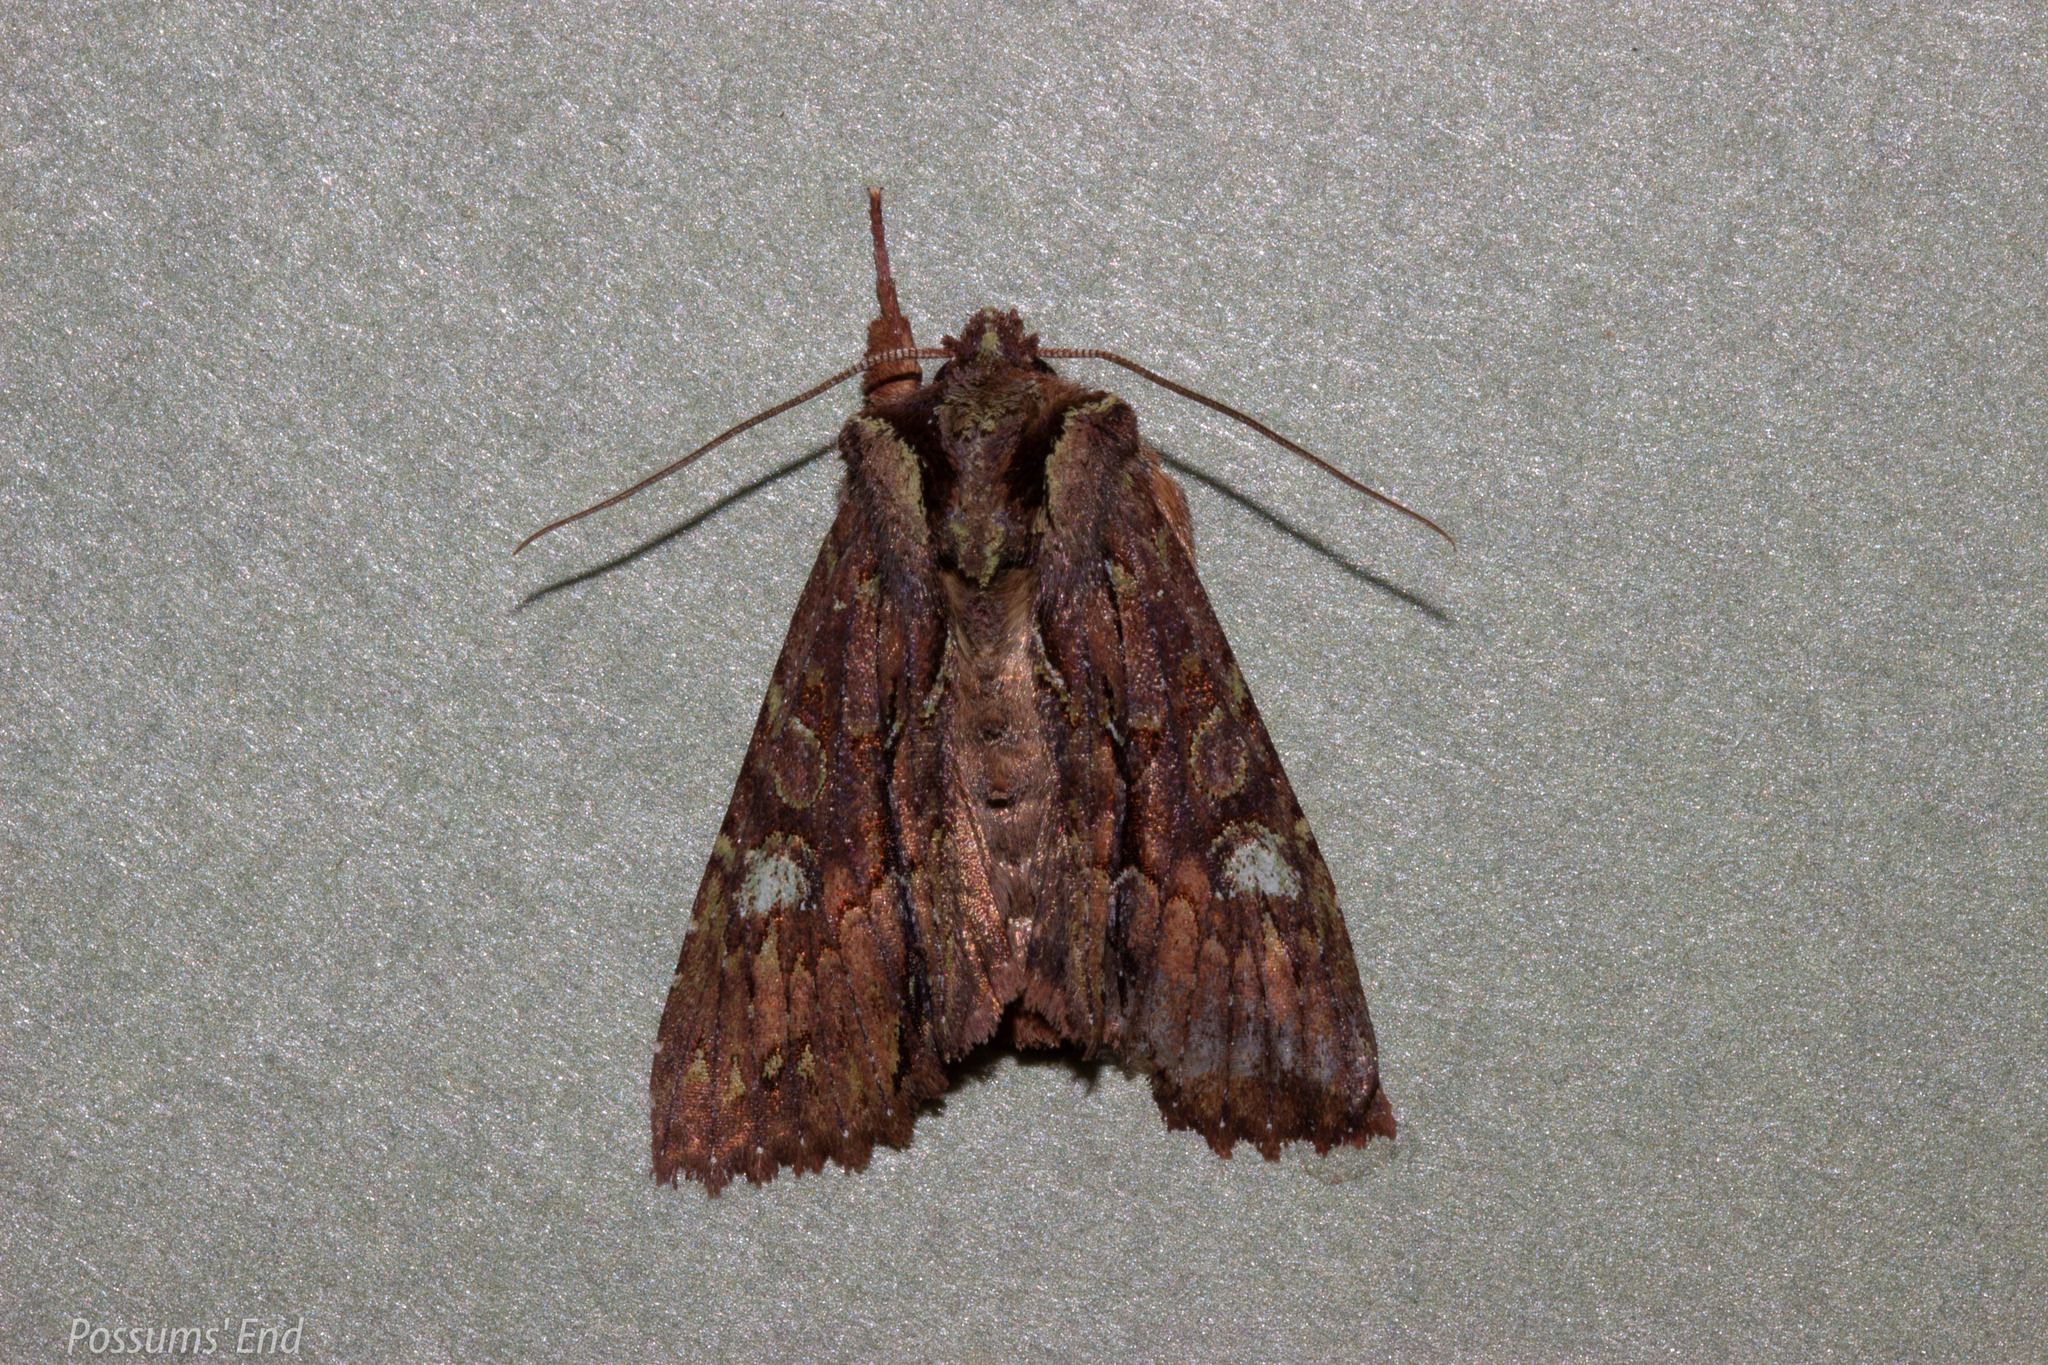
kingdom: Animalia
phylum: Arthropoda
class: Insecta
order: Lepidoptera
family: Noctuidae
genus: Meterana
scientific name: Meterana diatmeta
